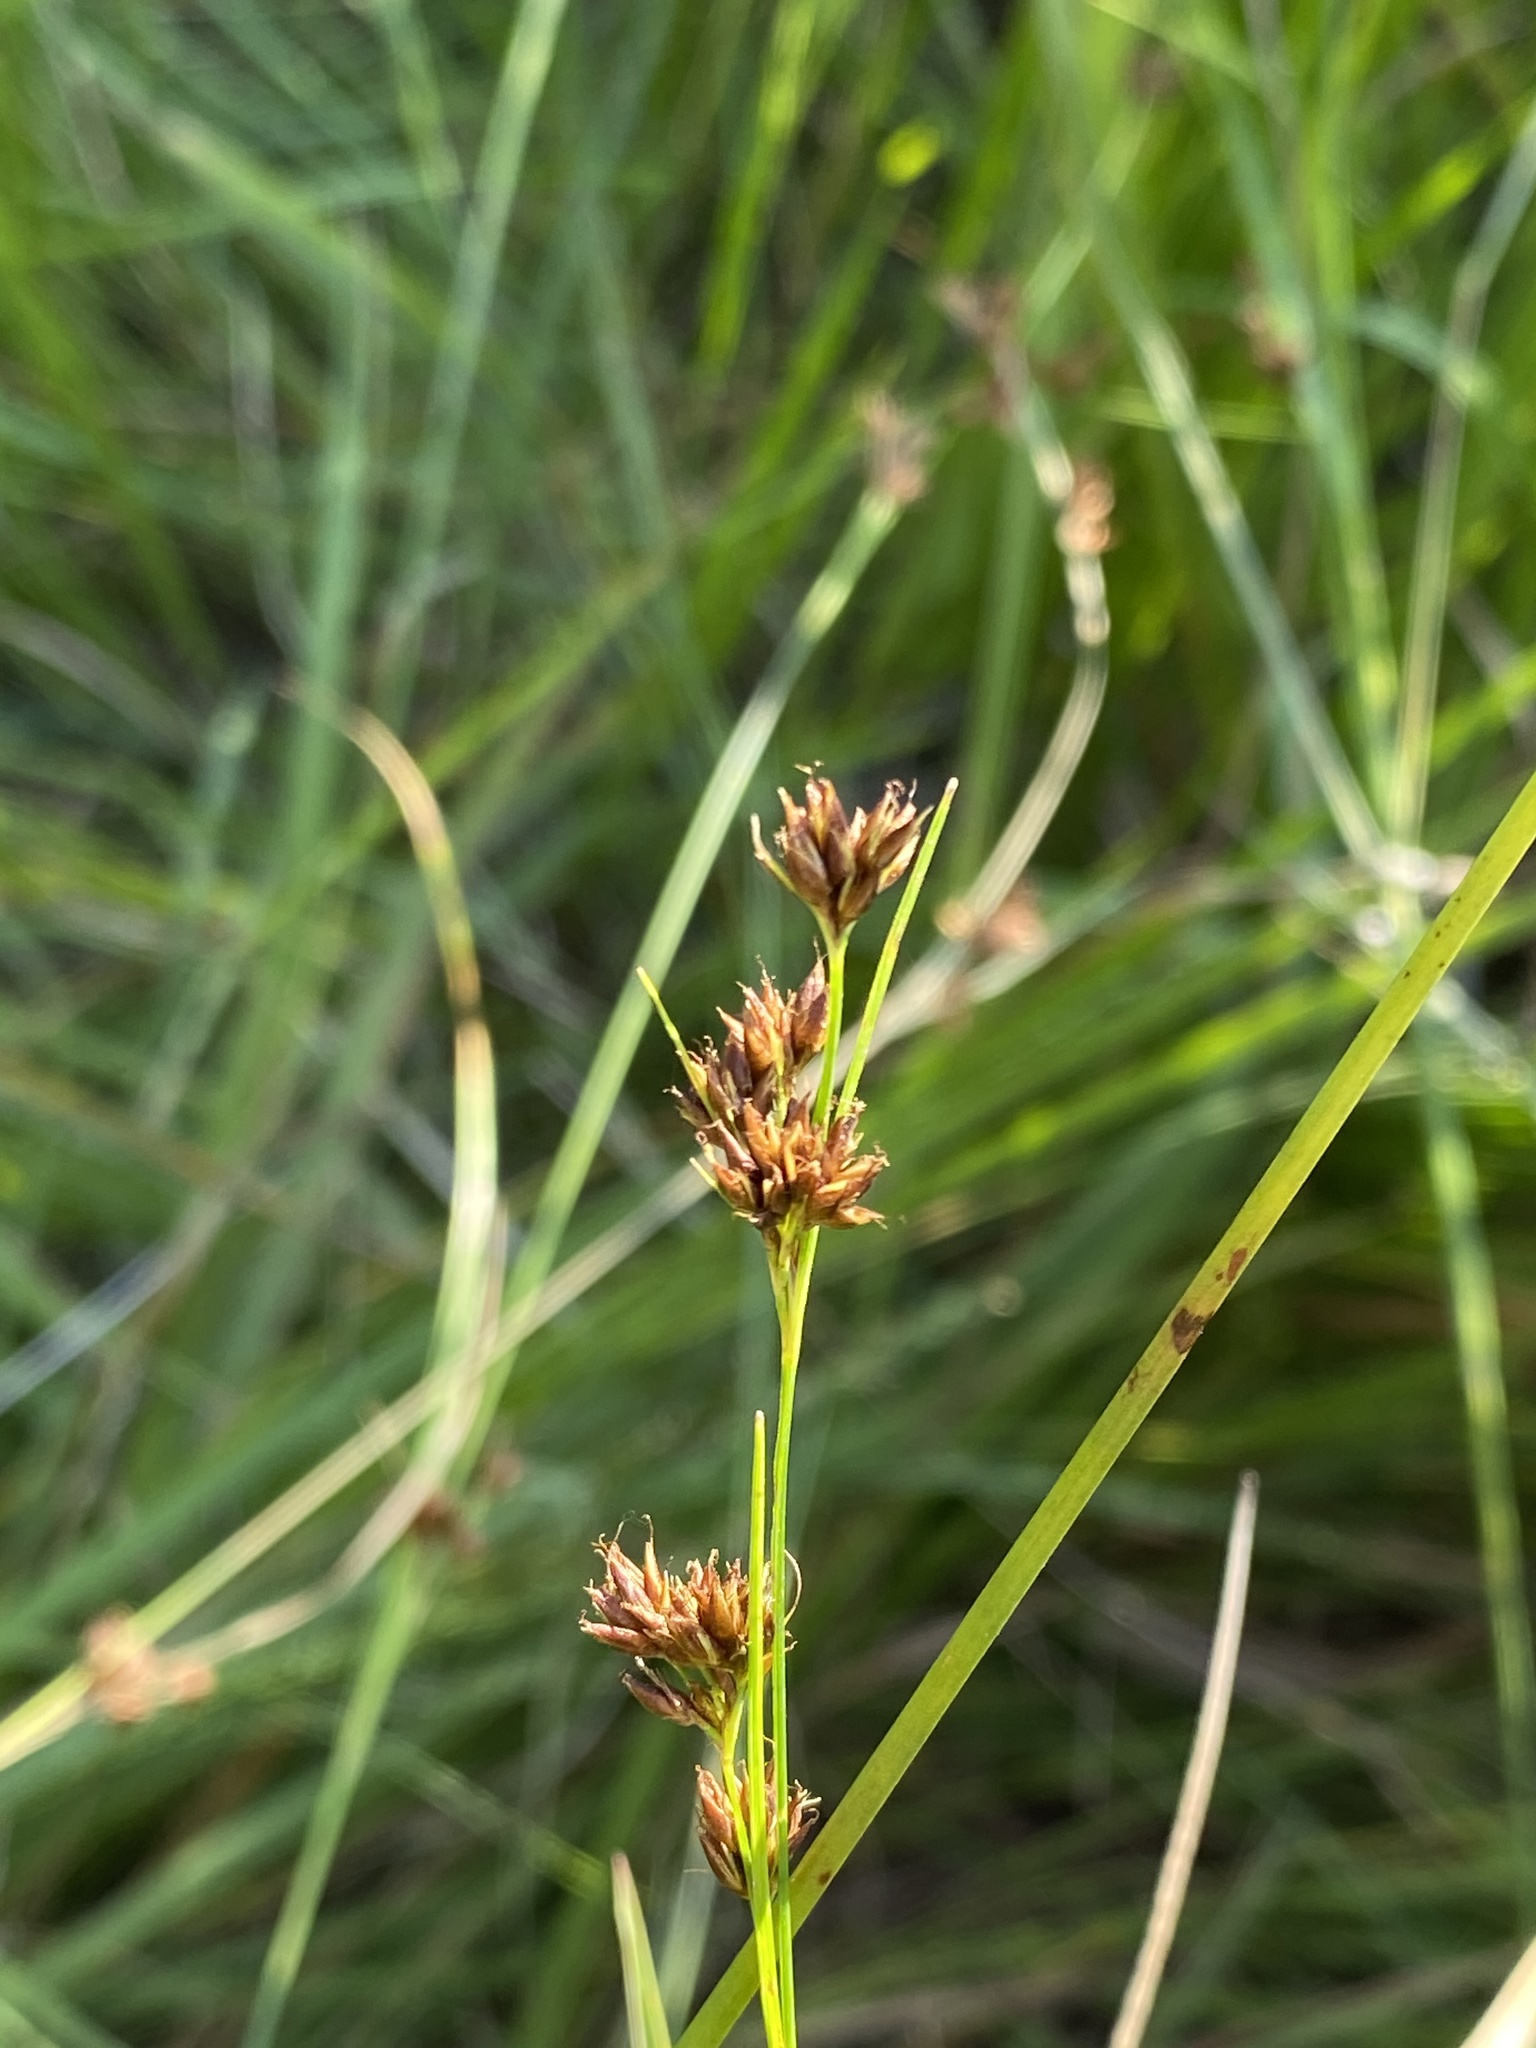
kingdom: Plantae
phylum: Tracheophyta
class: Liliopsida
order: Poales
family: Cyperaceae
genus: Rhynchospora
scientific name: Rhynchospora capitellata
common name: Brownish beaksedge
